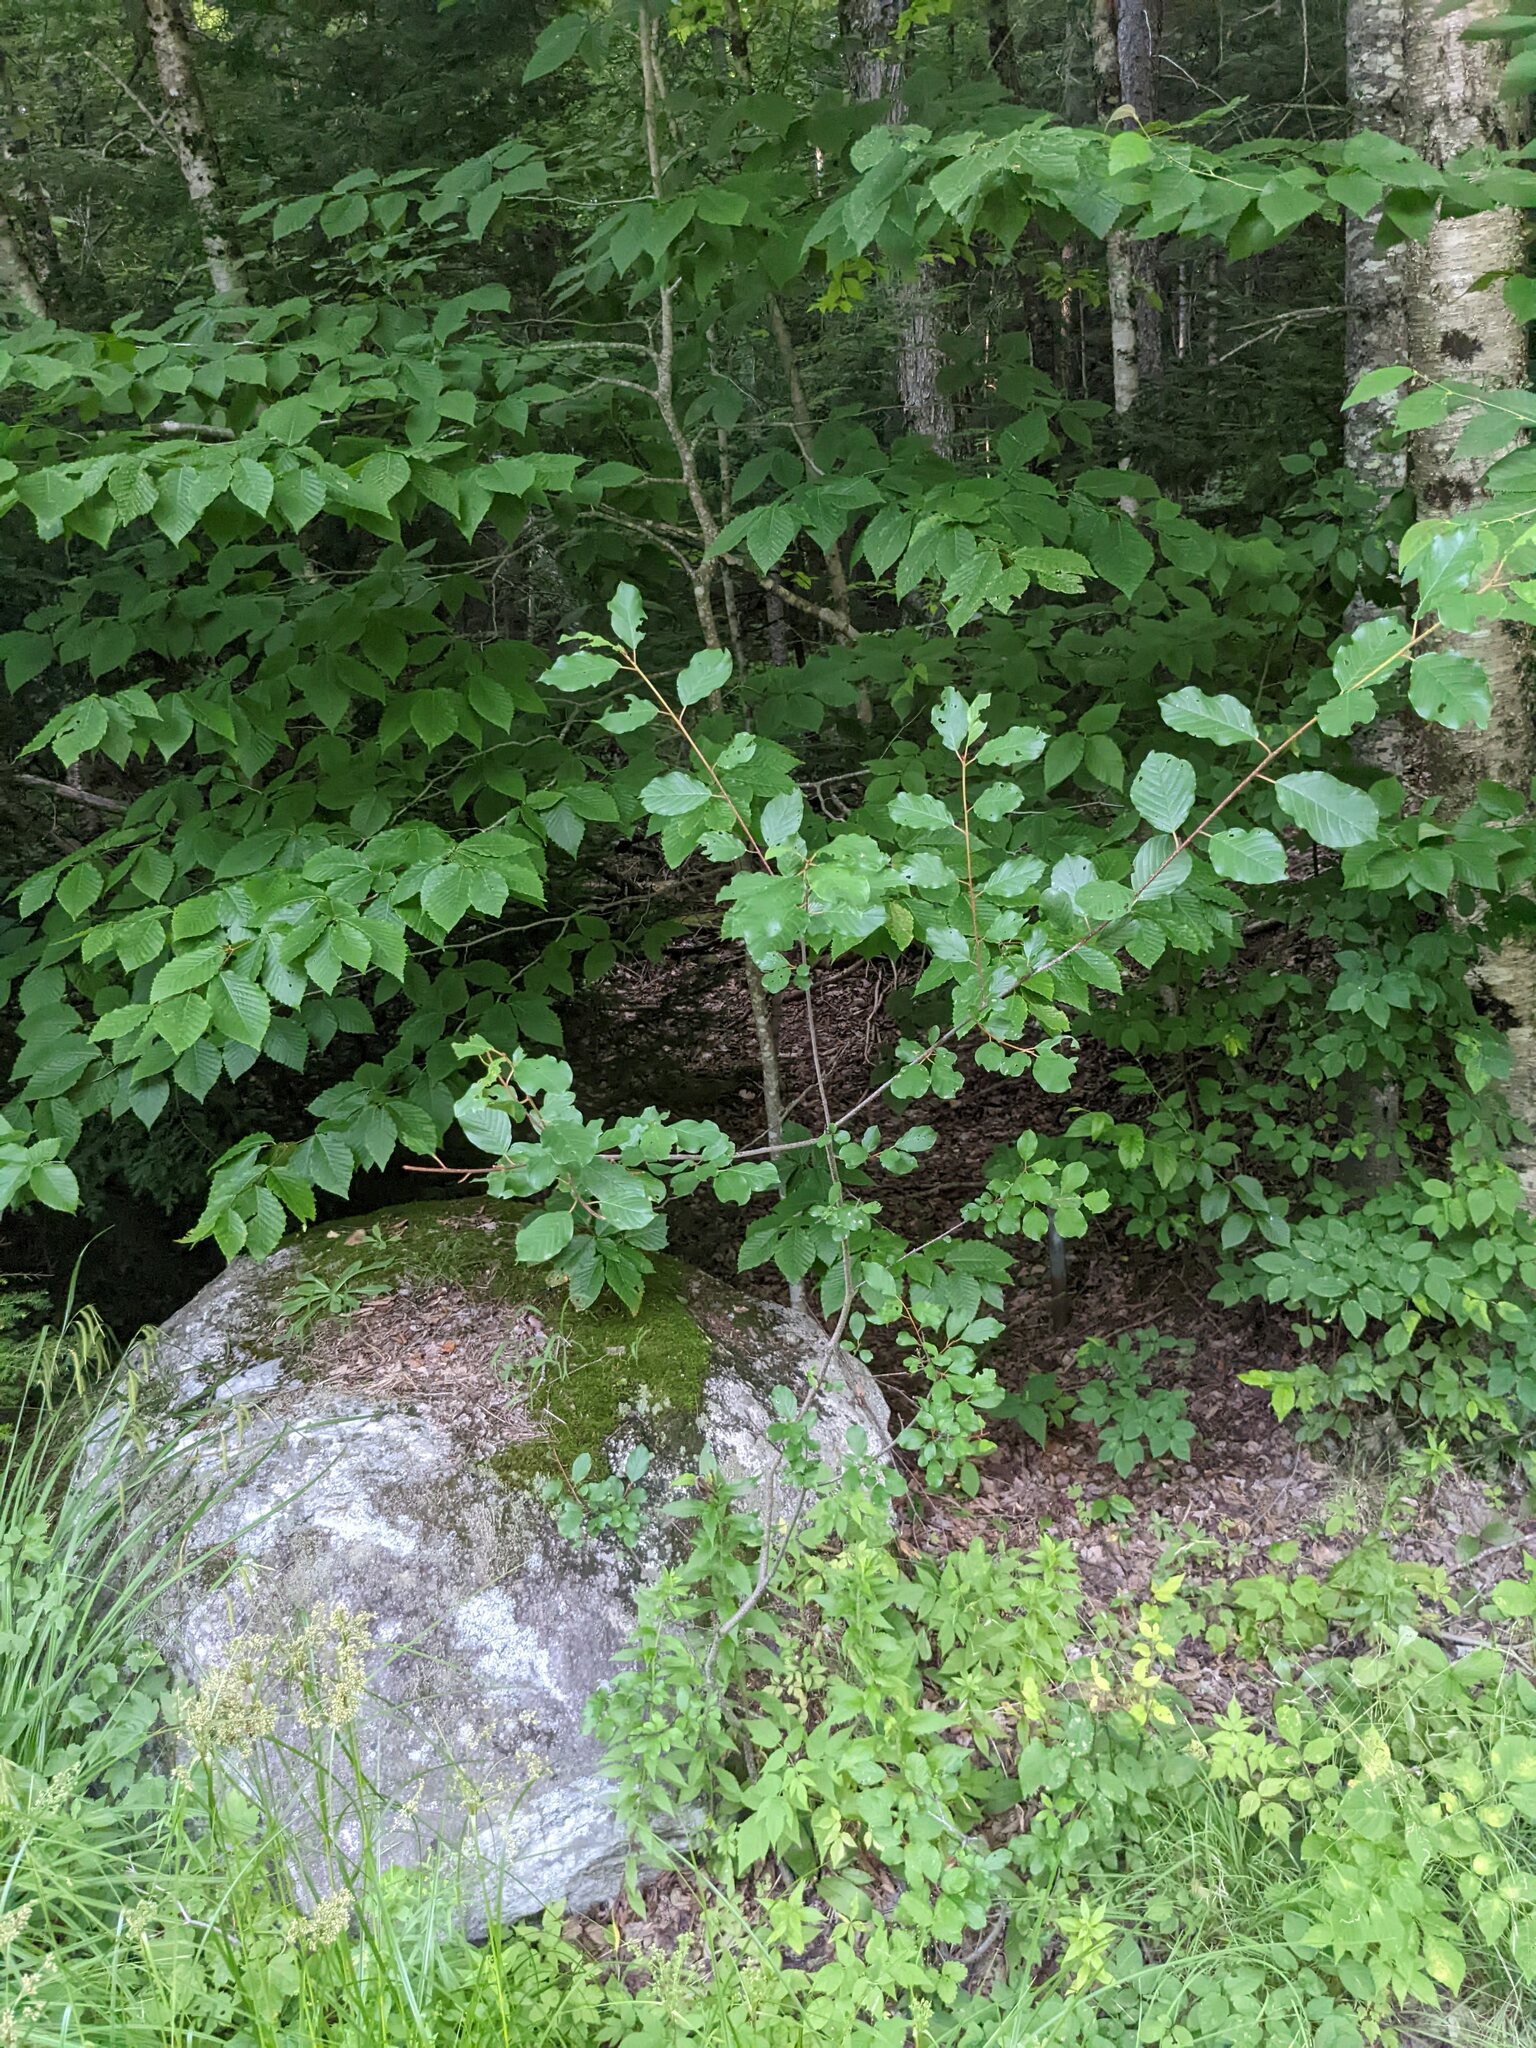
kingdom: Plantae
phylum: Tracheophyta
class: Magnoliopsida
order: Rosales
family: Rhamnaceae
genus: Frangula
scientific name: Frangula alnus
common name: Alder buckthorn
